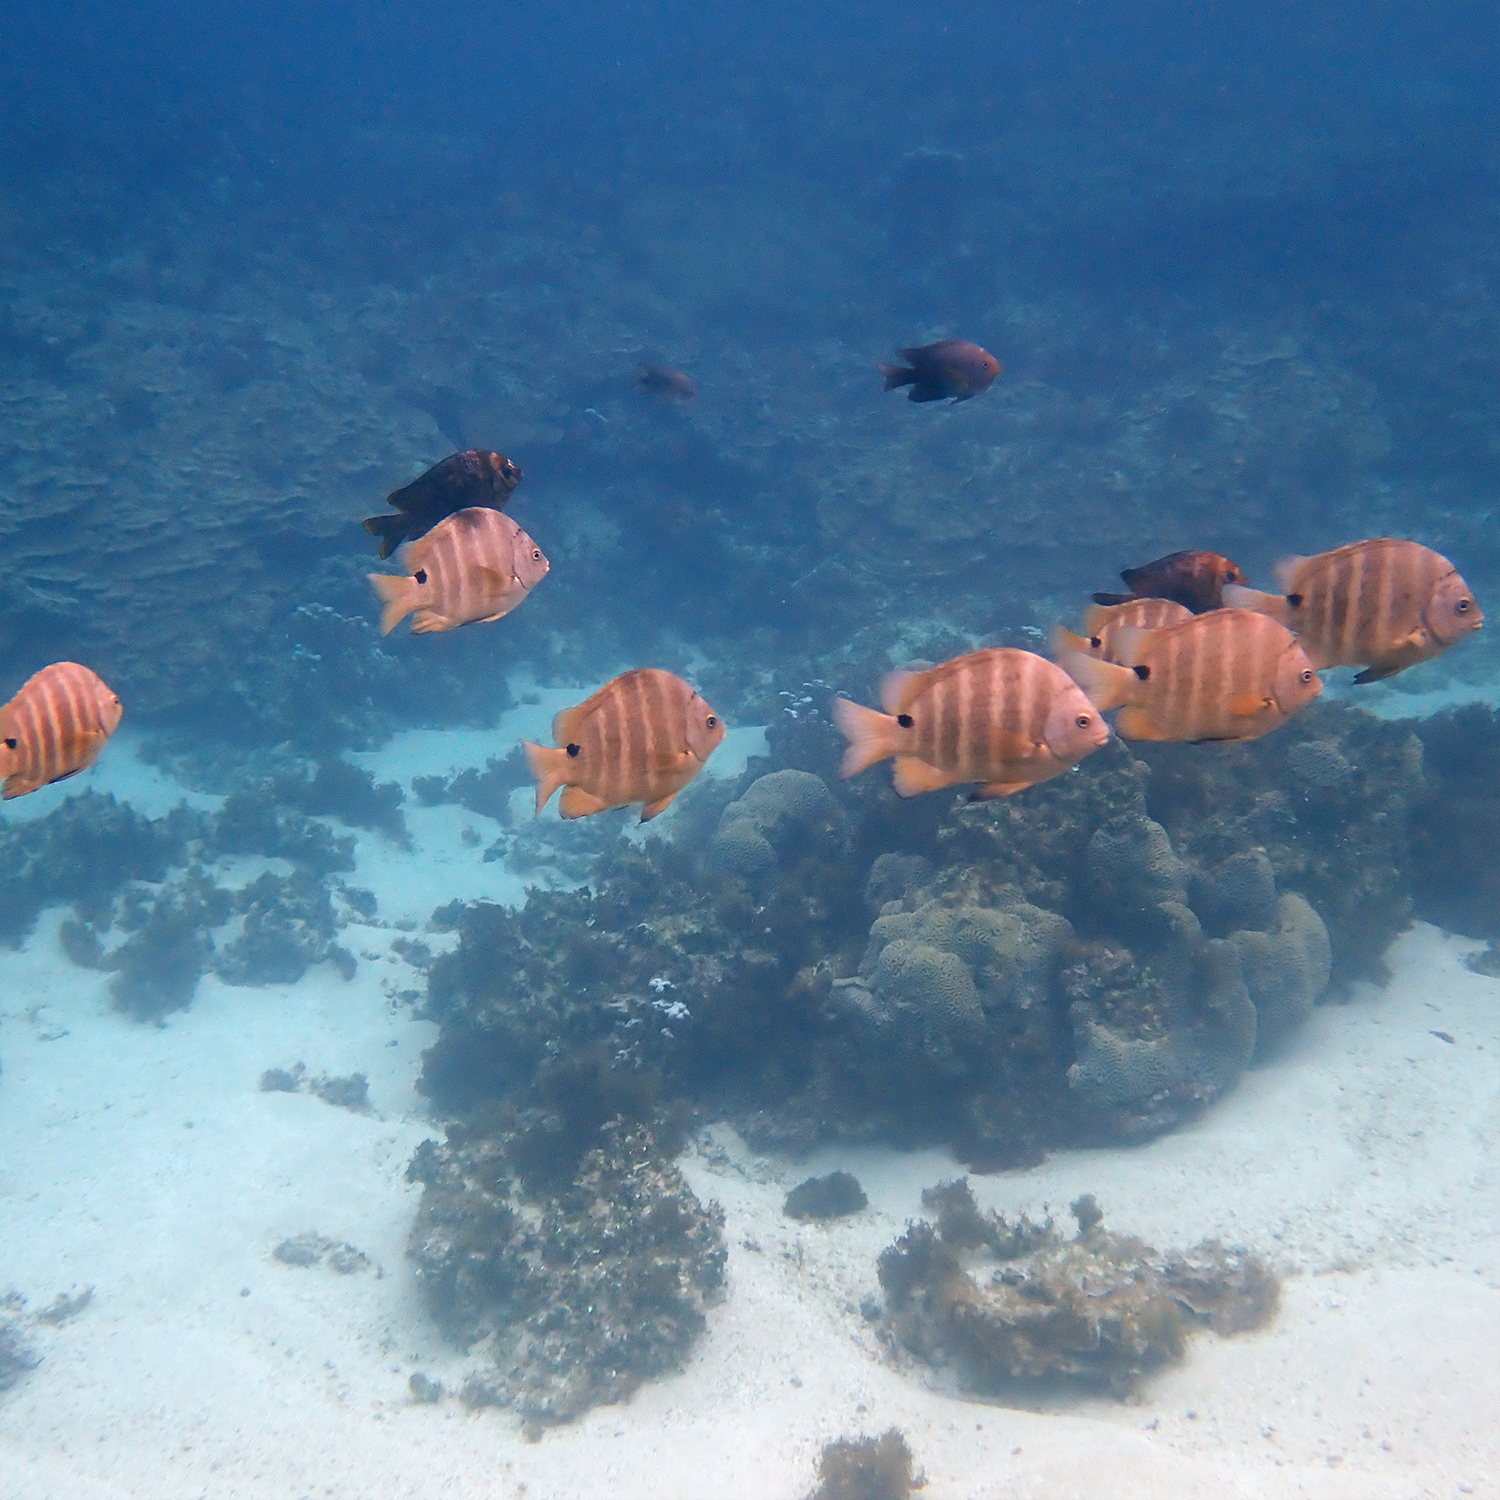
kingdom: Animalia
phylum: Chordata
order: Perciformes
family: Pomacentridae
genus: Abudefduf
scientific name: Abudefduf sordidus
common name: Blackspot sergeant
